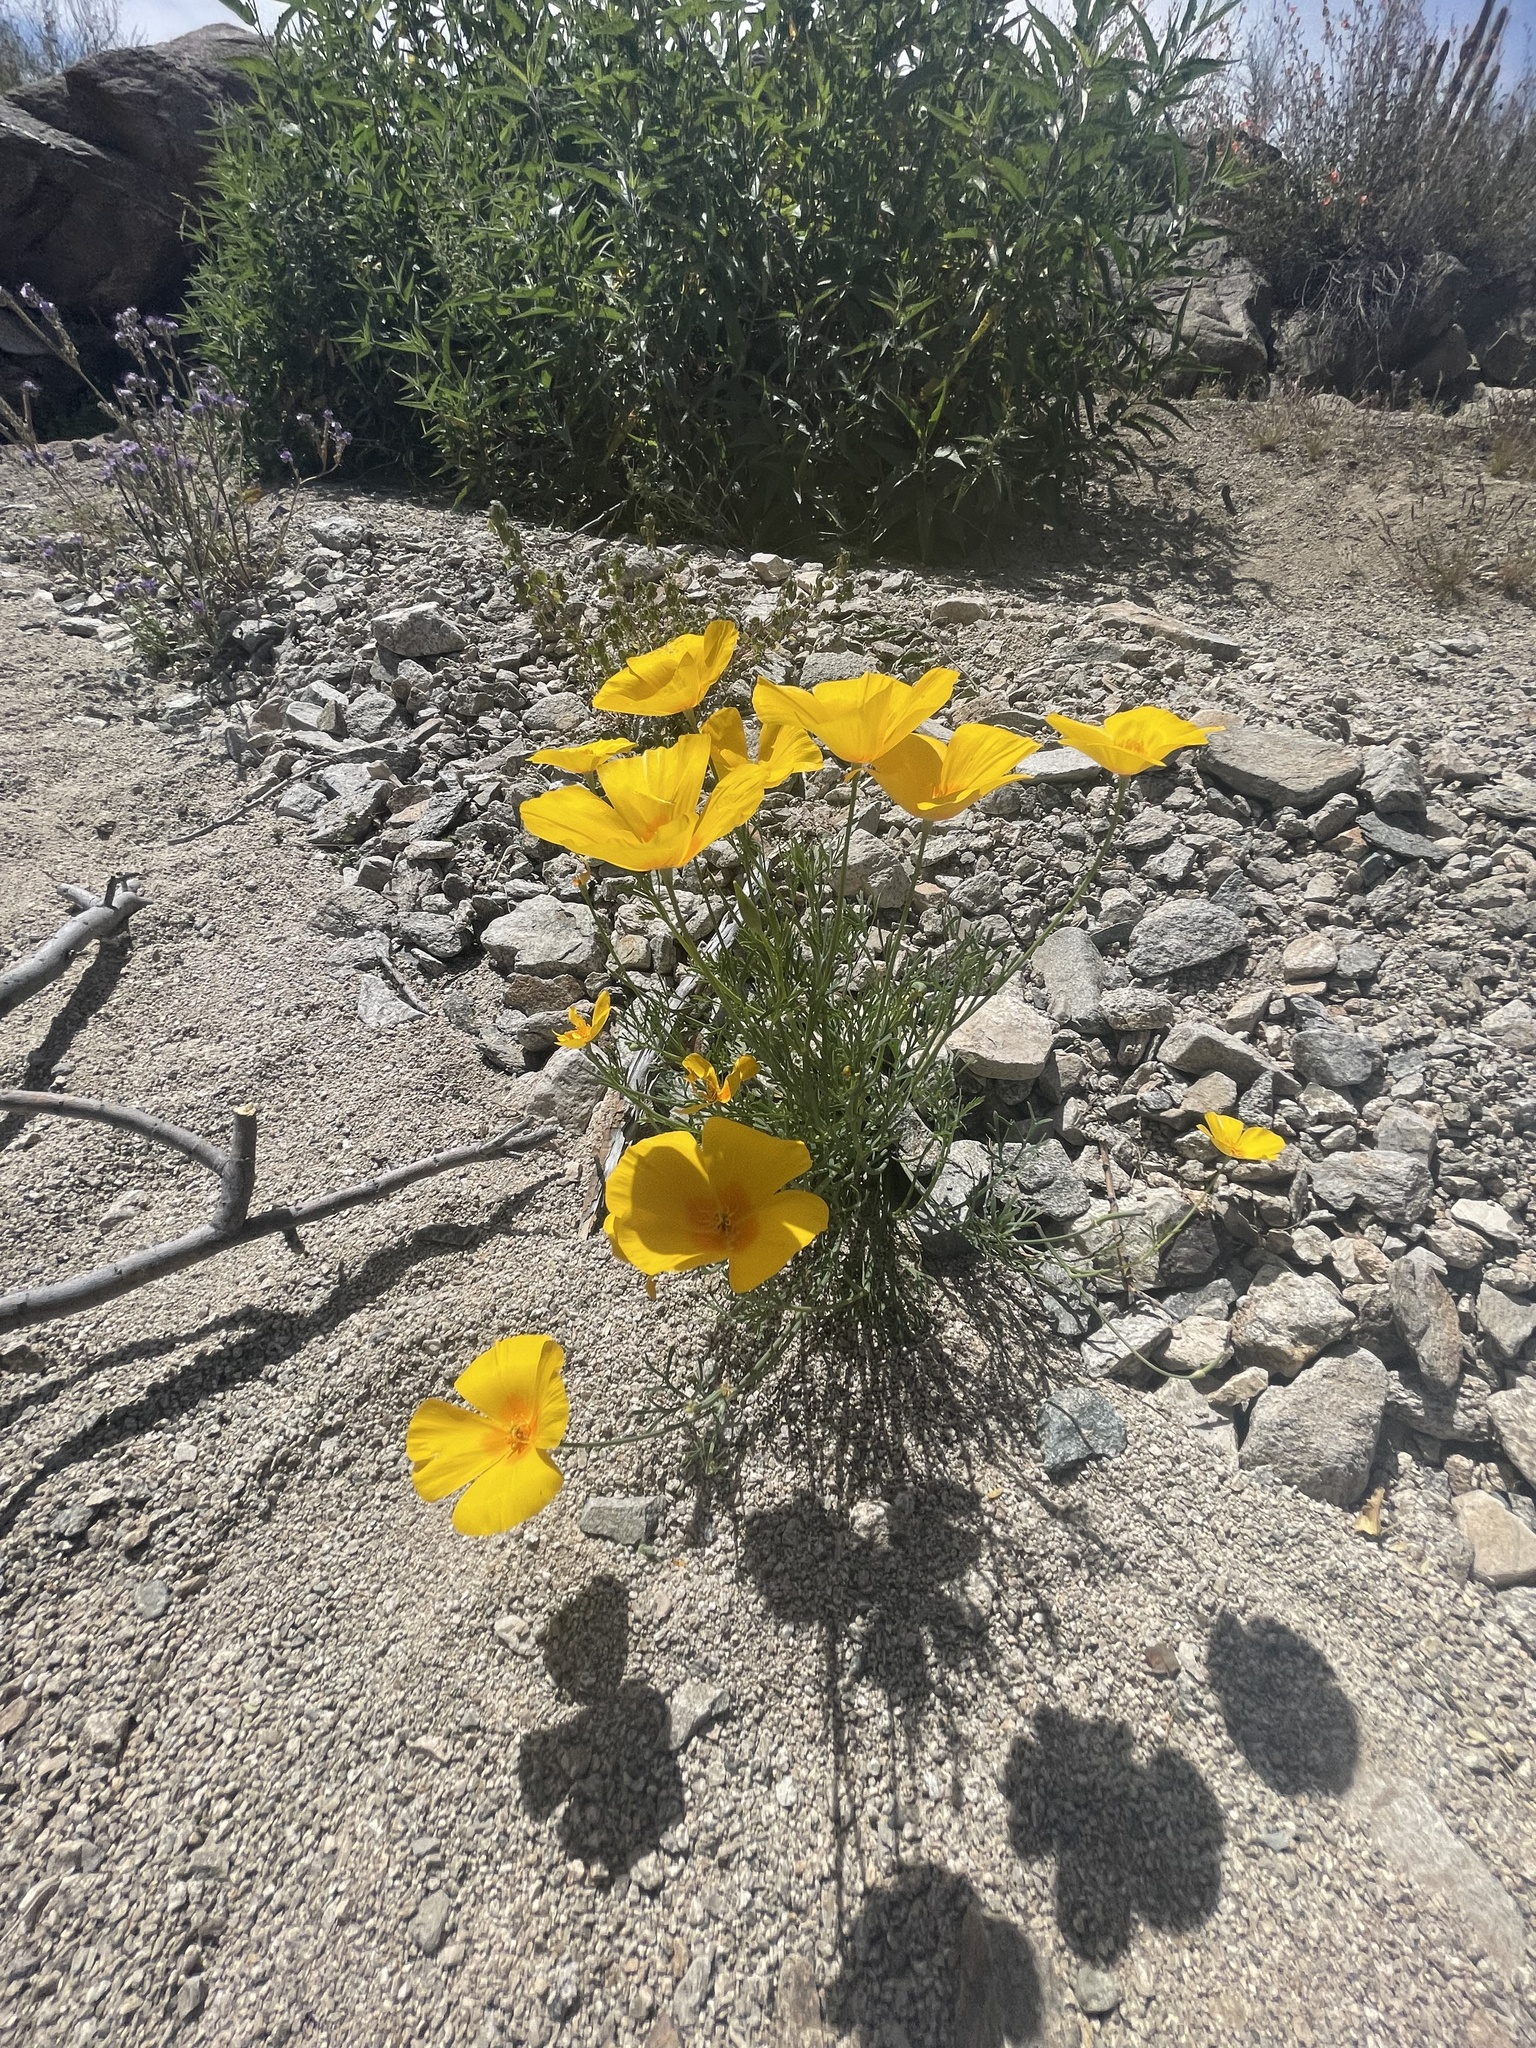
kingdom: Plantae
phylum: Tracheophyta
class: Magnoliopsida
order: Ranunculales
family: Papaveraceae
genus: Eschscholzia
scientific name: Eschscholzia californica
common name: California poppy
